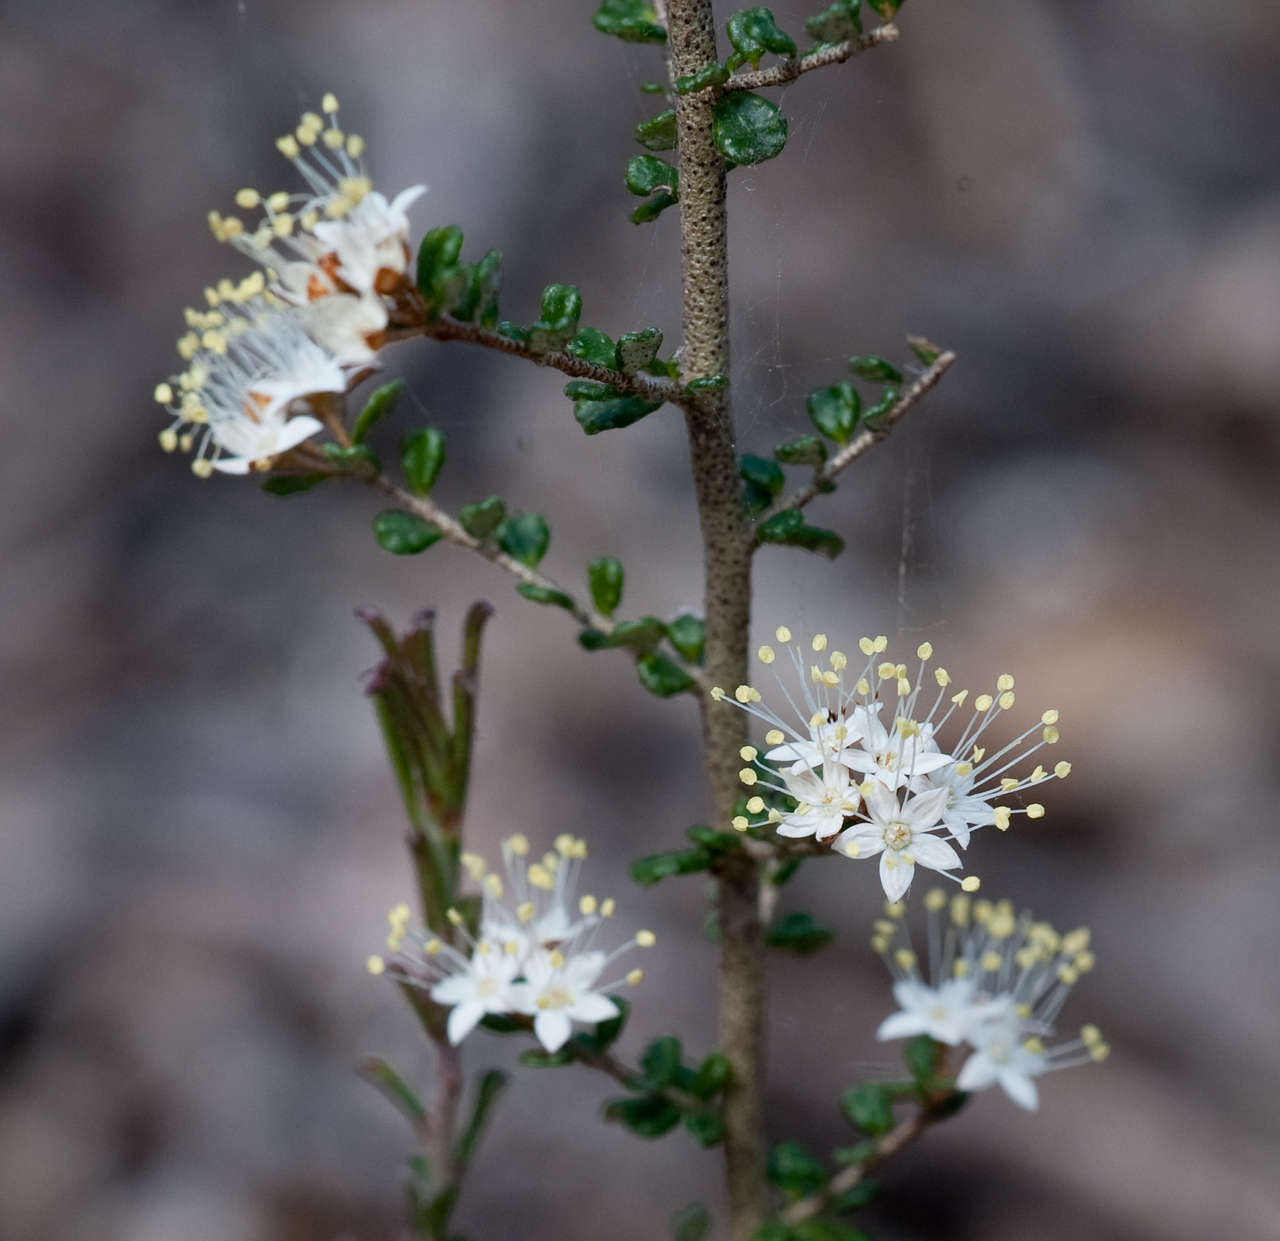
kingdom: Plantae
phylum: Tracheophyta
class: Magnoliopsida
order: Sapindales
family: Rutaceae
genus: Phebalium
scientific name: Phebalium festivum
